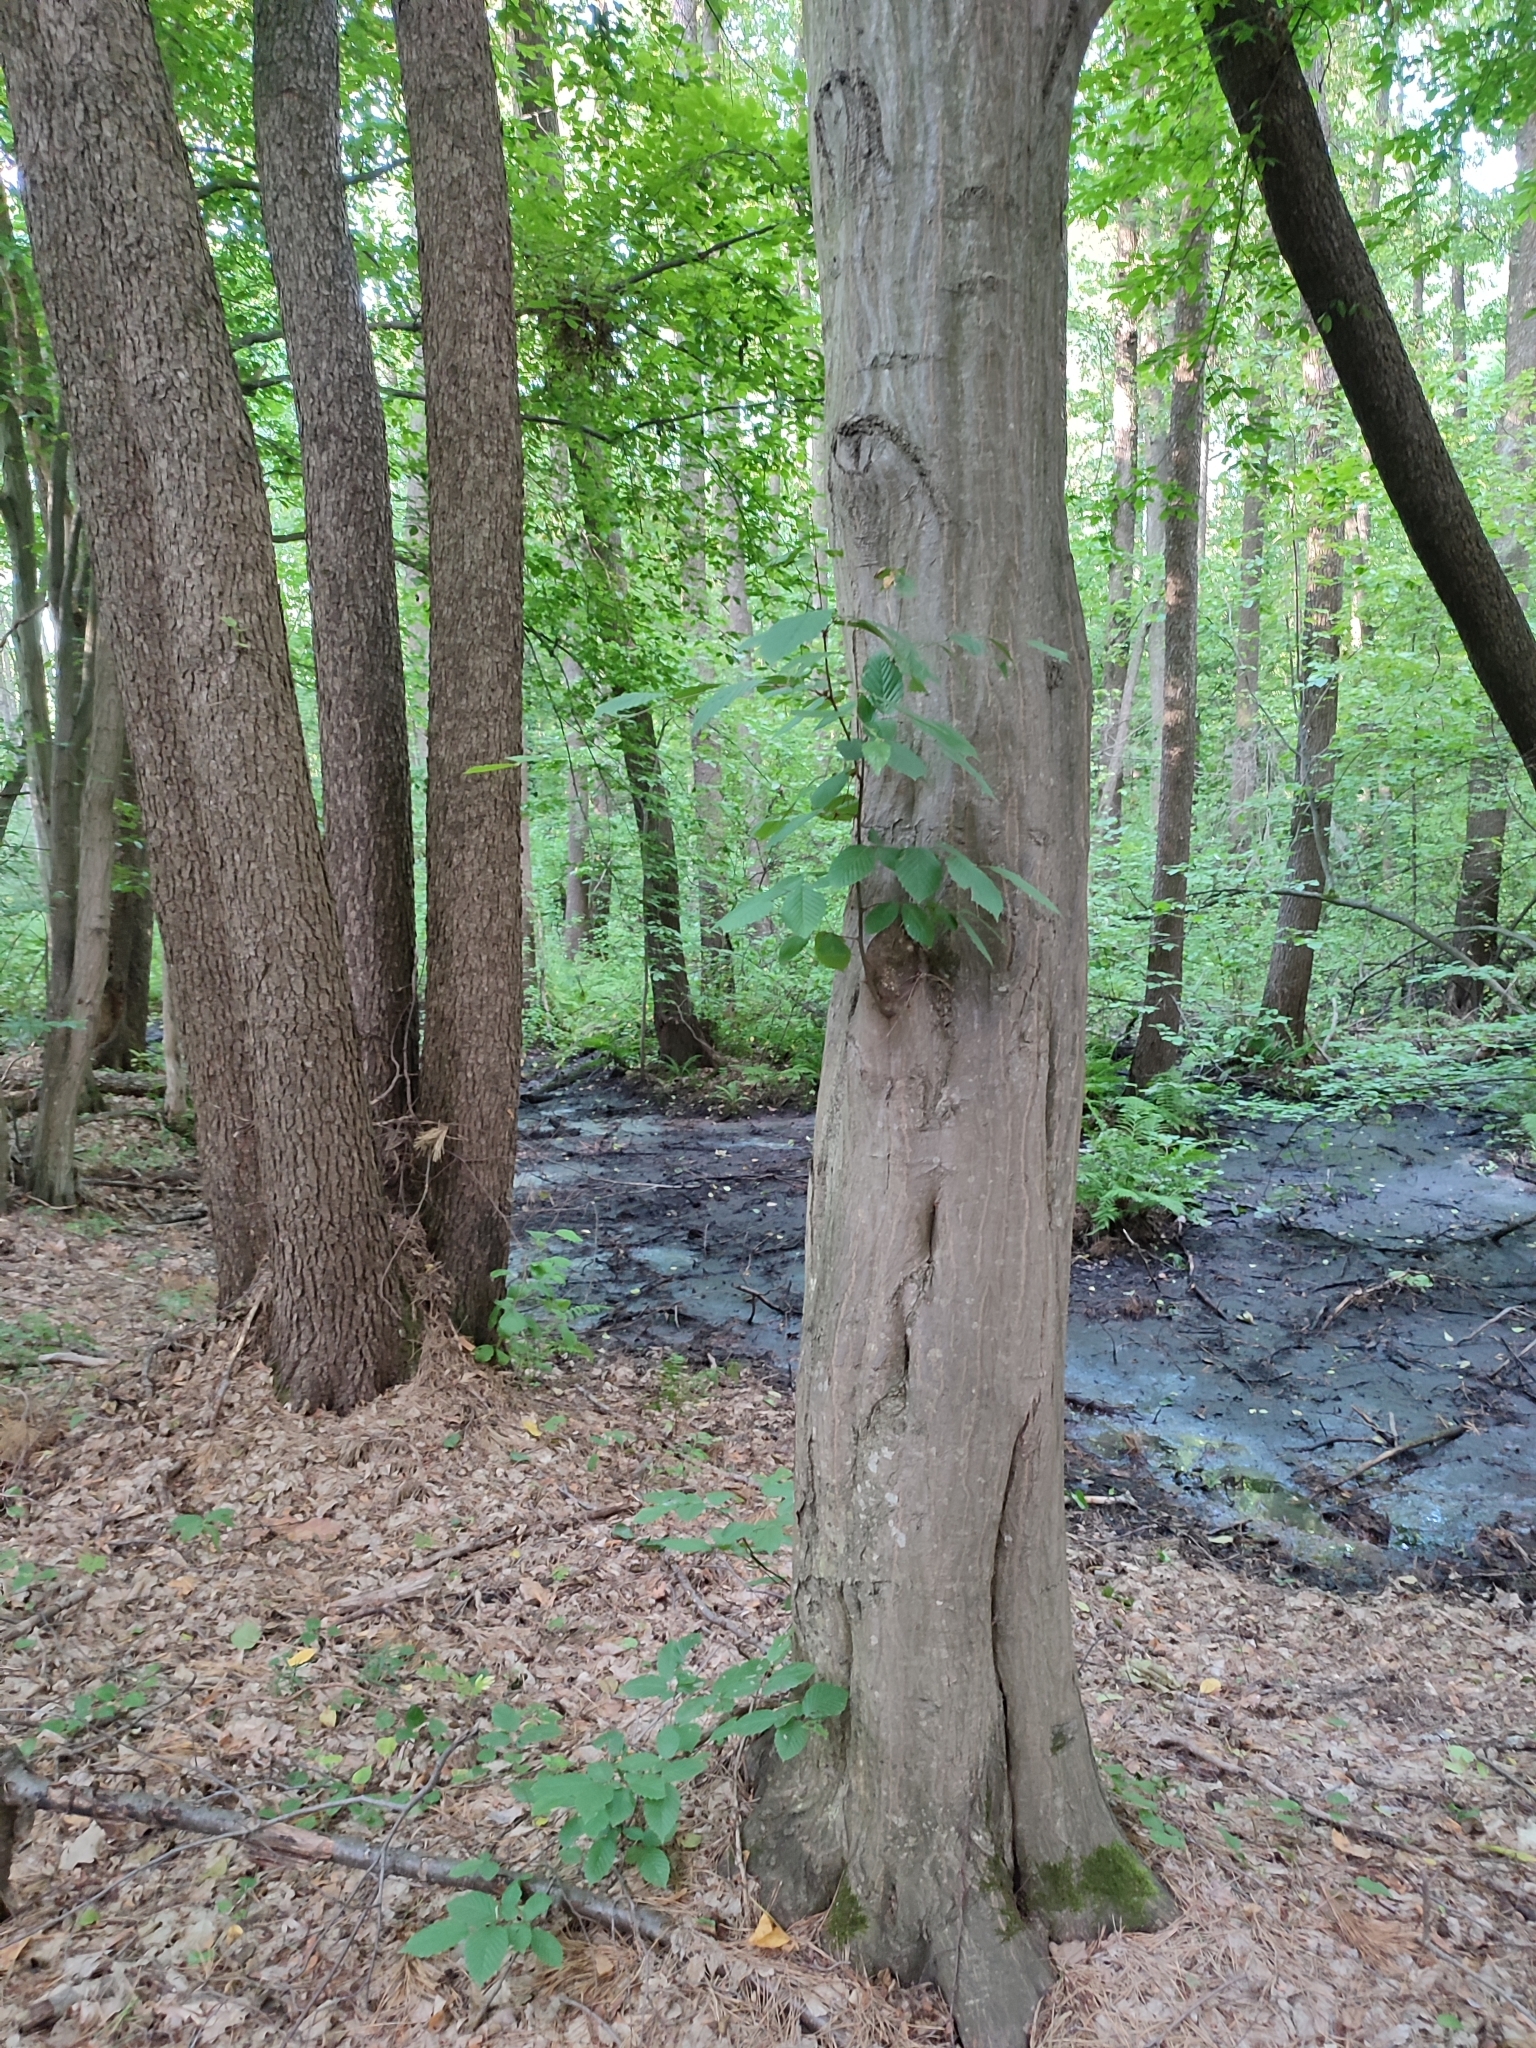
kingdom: Plantae
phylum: Tracheophyta
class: Magnoliopsida
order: Fagales
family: Betulaceae
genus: Carpinus
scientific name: Carpinus betulus
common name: Hornbeam
